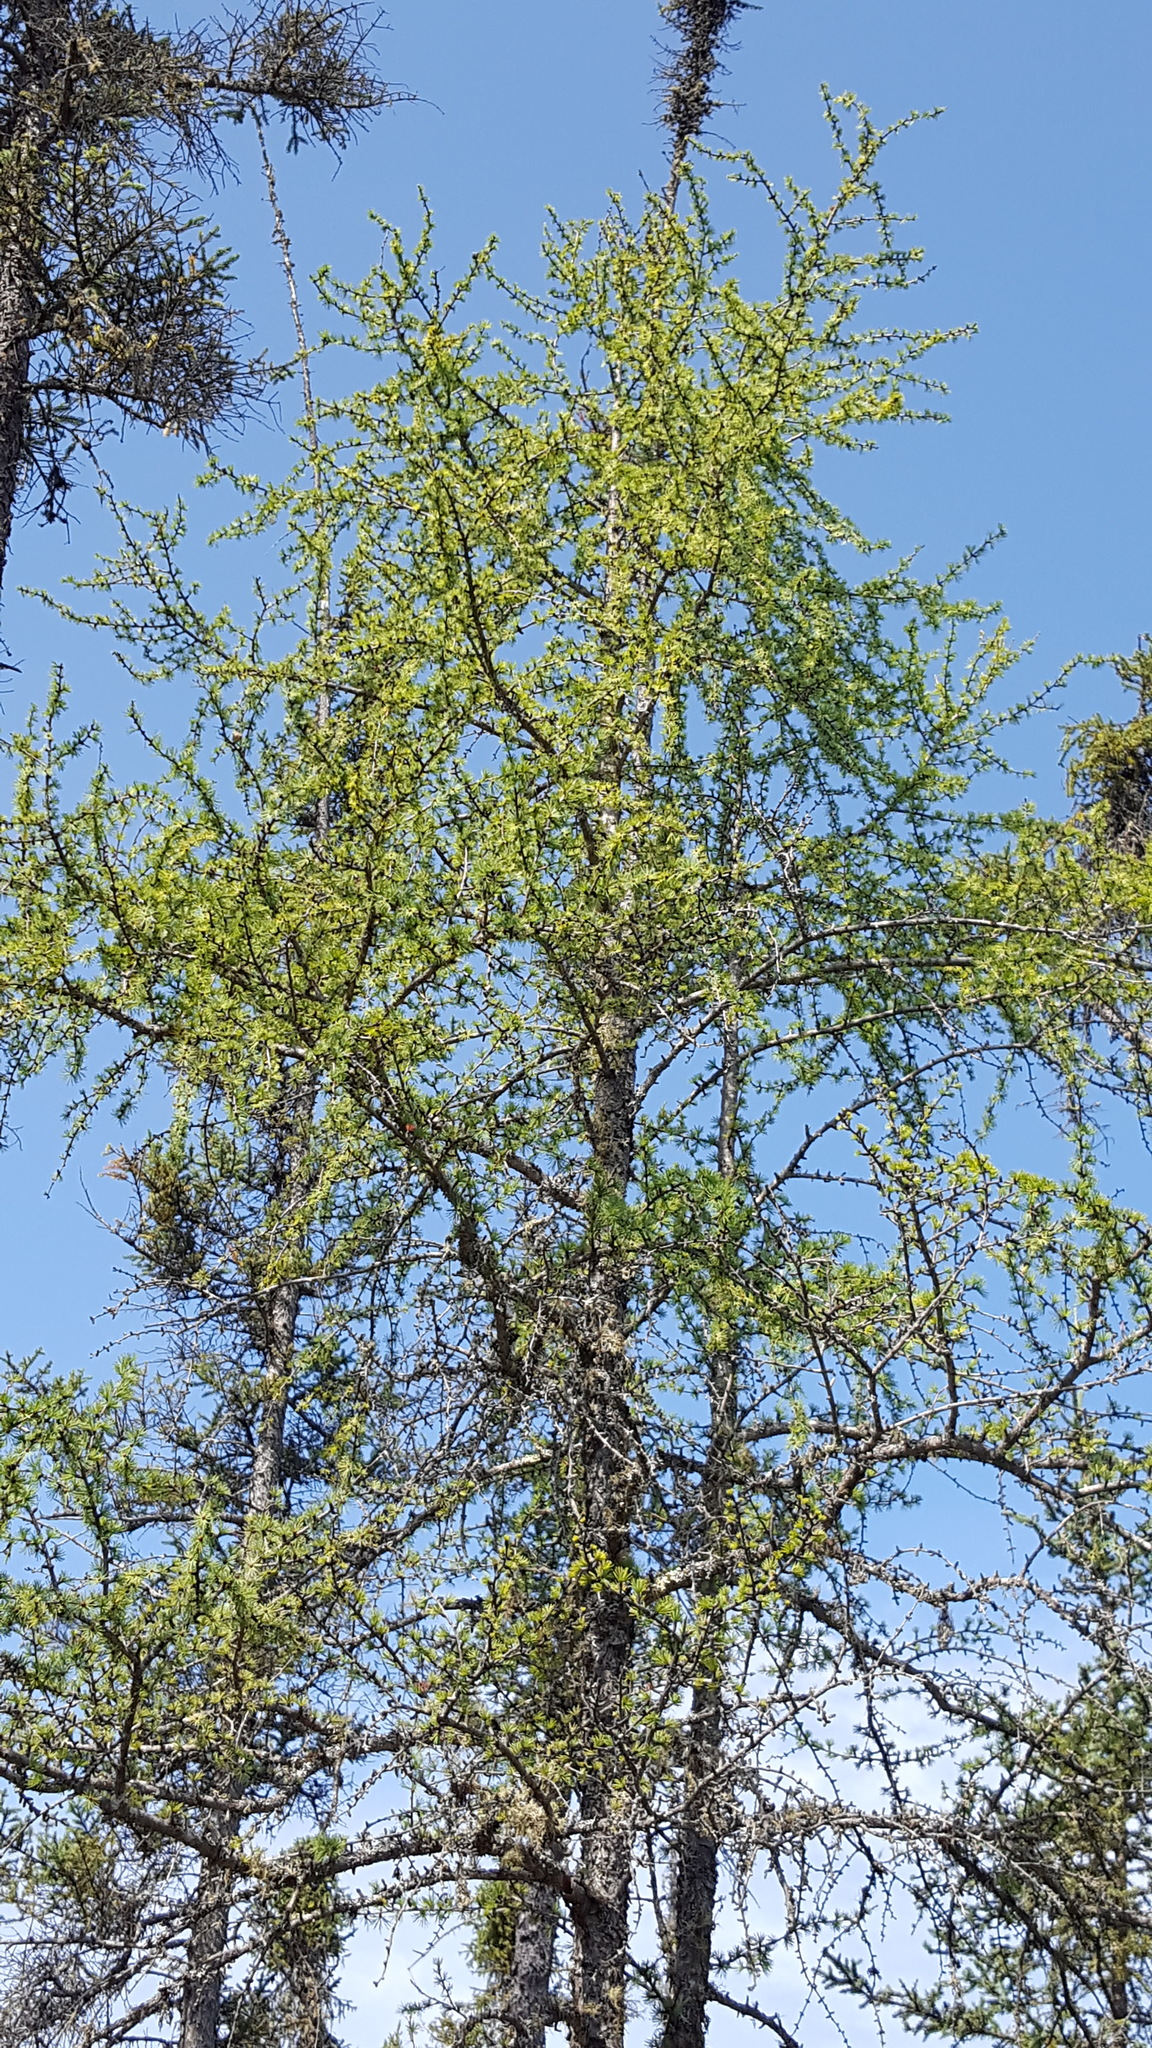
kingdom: Plantae
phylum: Tracheophyta
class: Pinopsida
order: Pinales
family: Pinaceae
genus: Larix
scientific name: Larix laricina
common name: American larch
